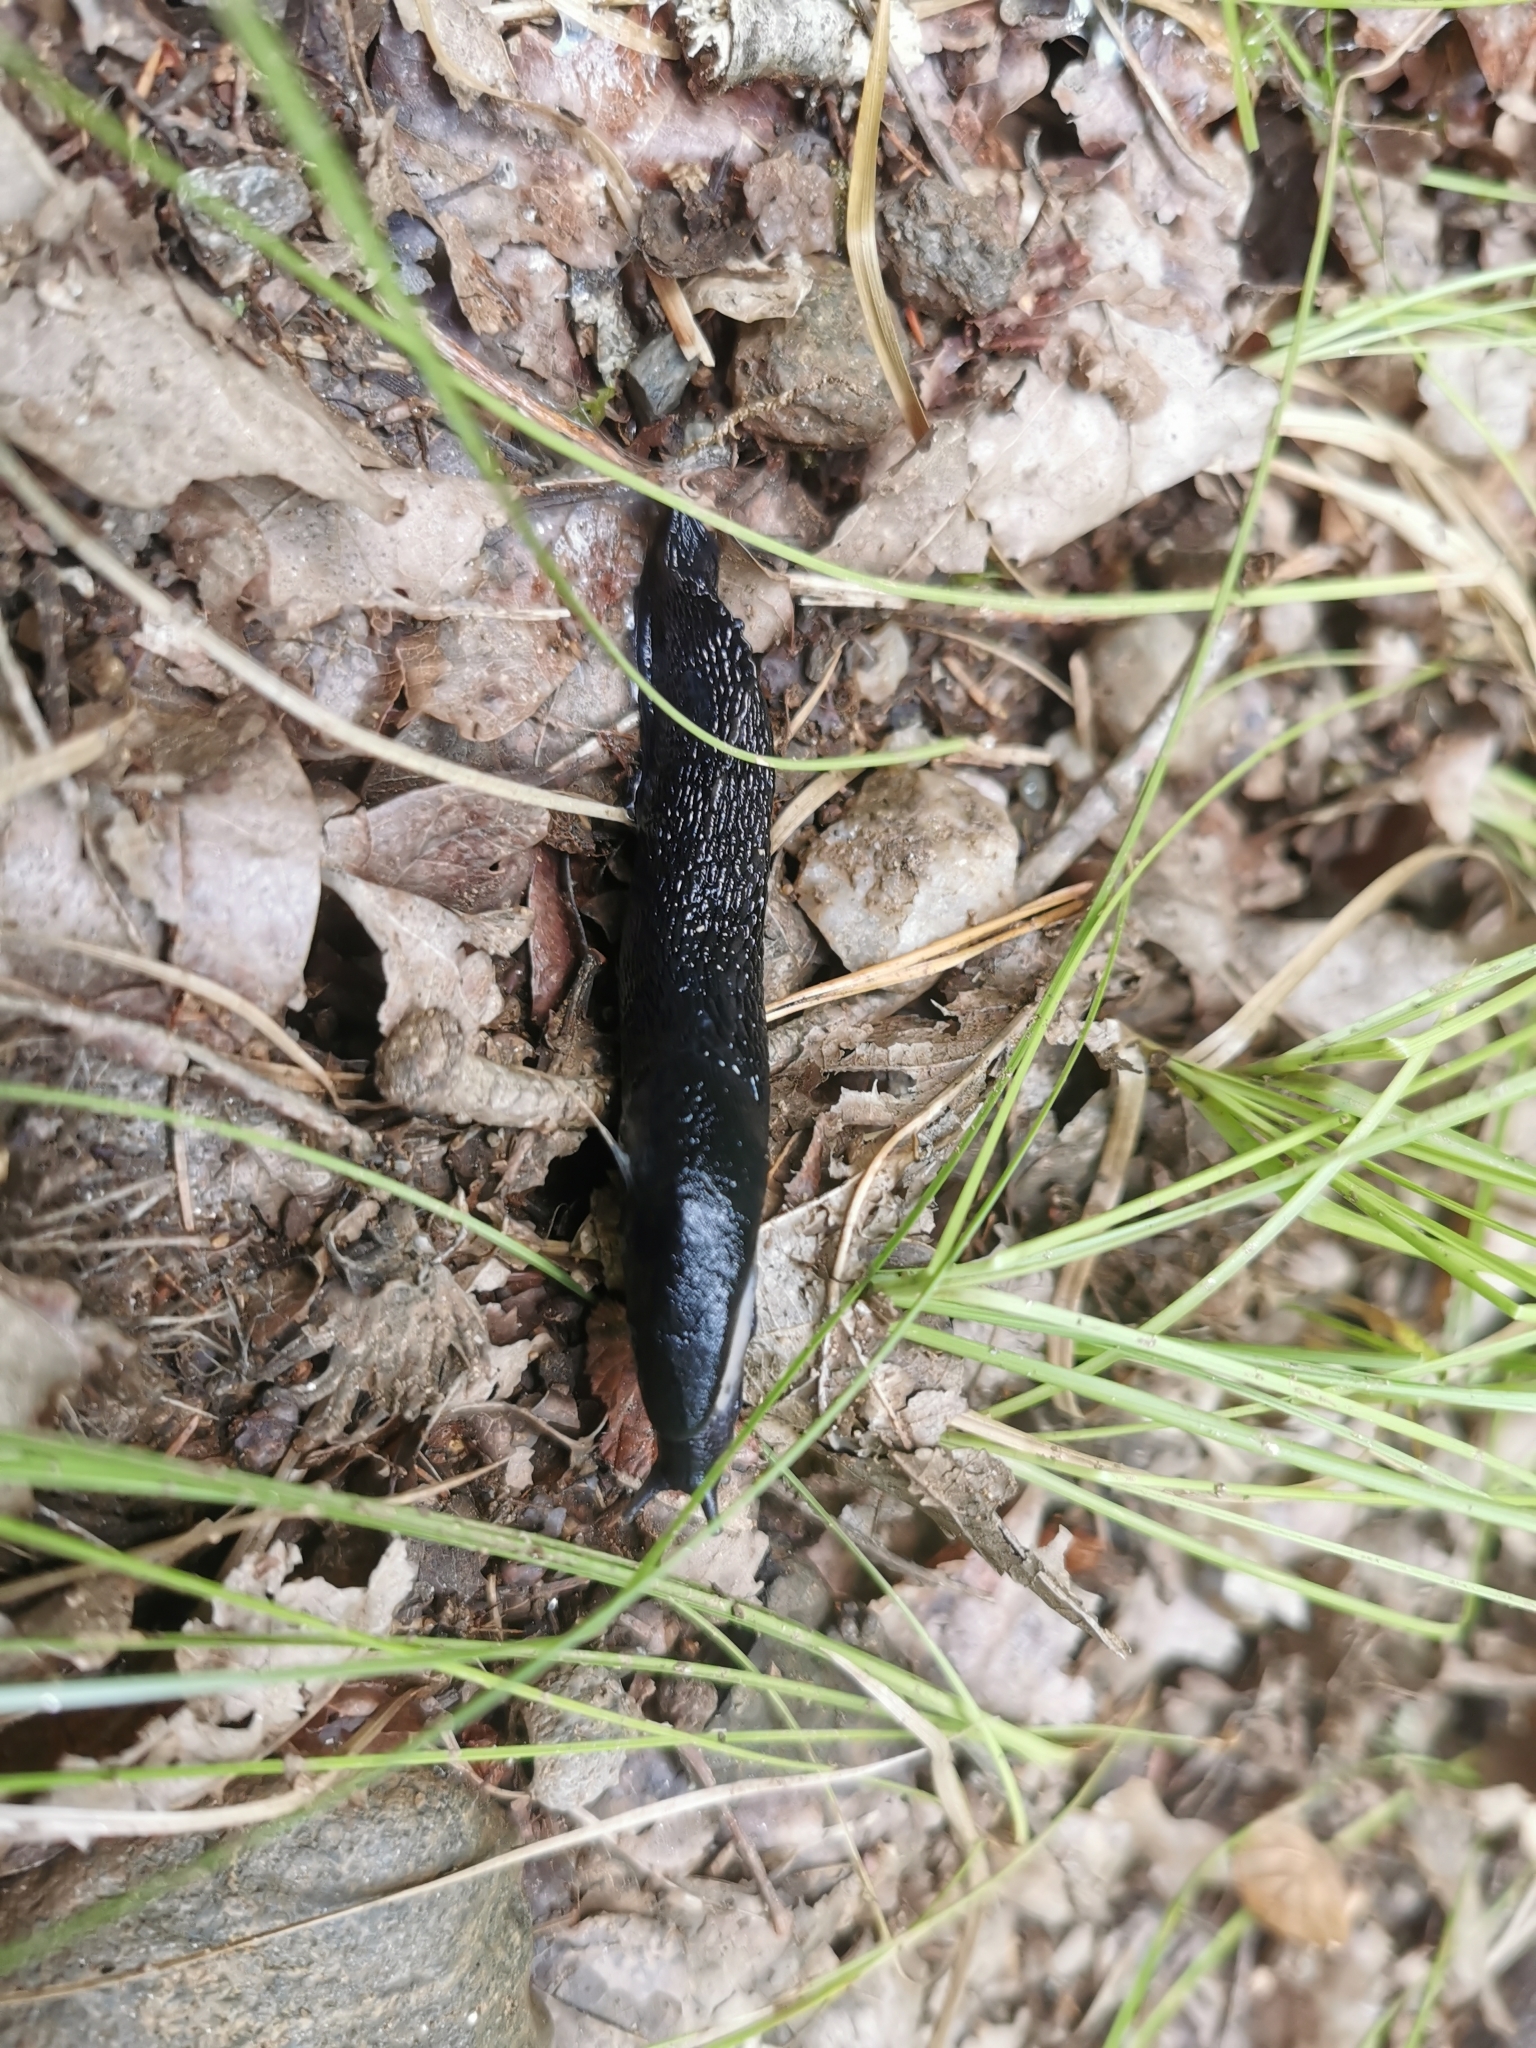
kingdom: Animalia
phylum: Mollusca
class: Gastropoda
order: Stylommatophora
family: Limacidae
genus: Limax
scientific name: Limax cinereoniger
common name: Ash-black slug
